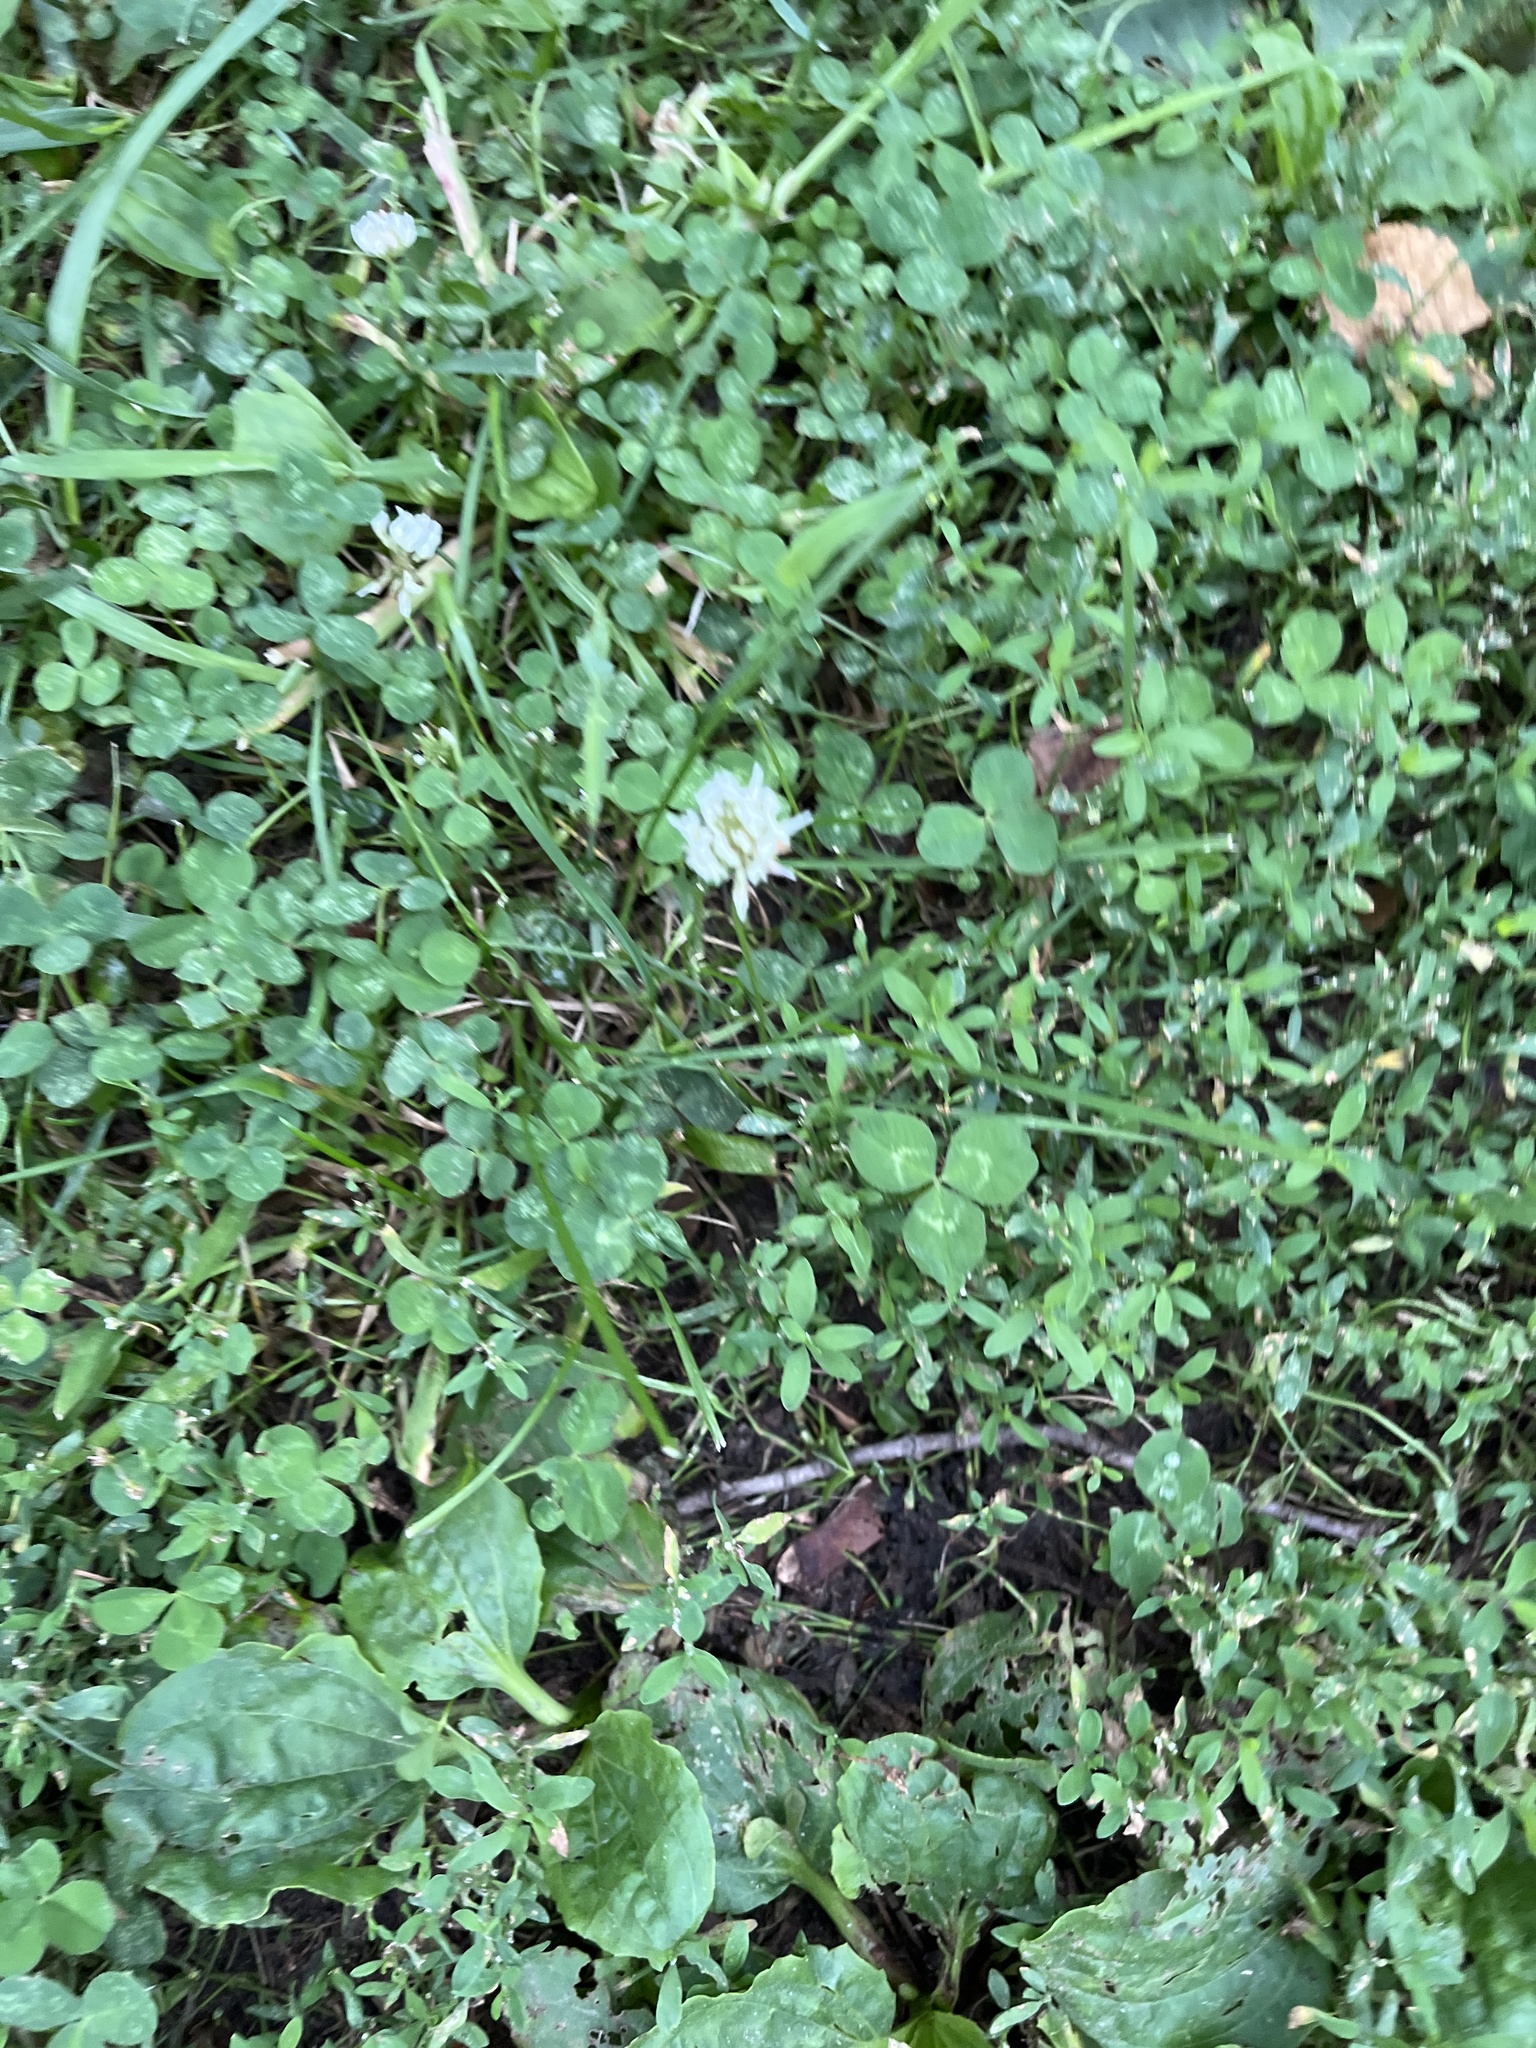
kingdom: Plantae
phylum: Tracheophyta
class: Magnoliopsida
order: Fabales
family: Fabaceae
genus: Trifolium
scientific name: Trifolium repens
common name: White clover
